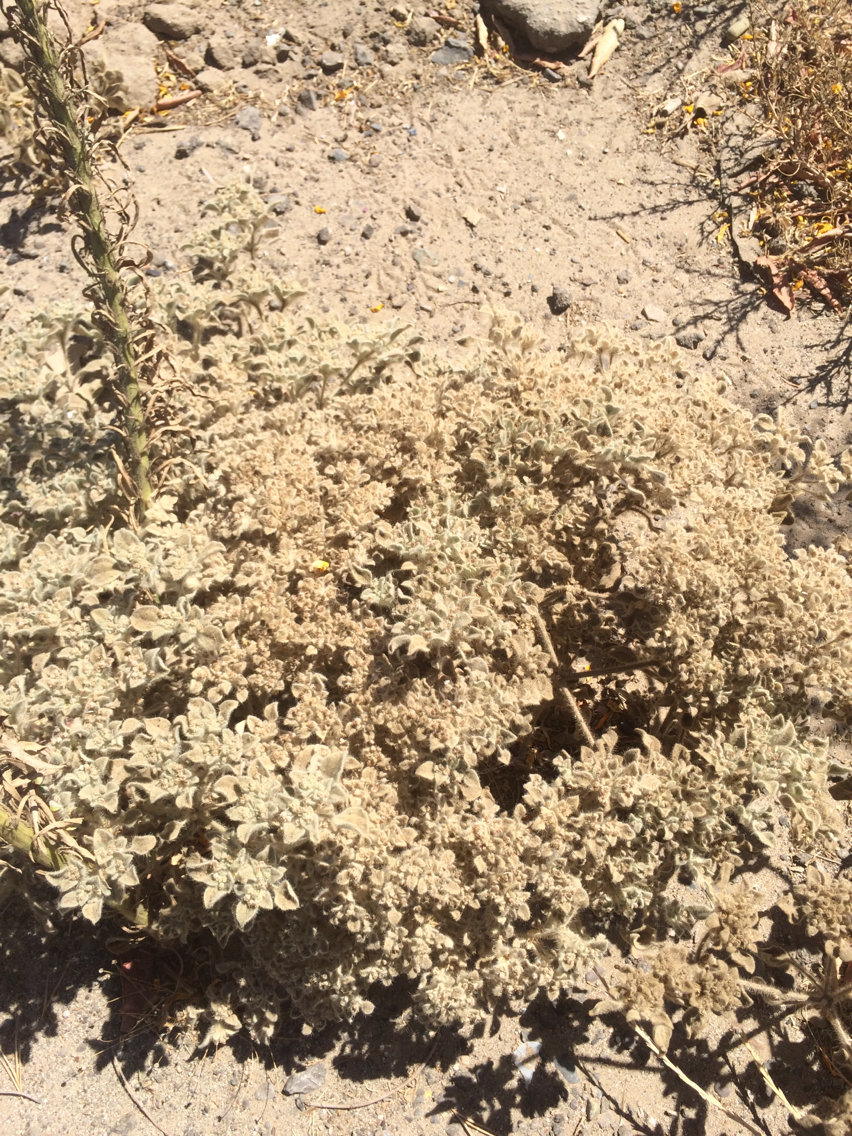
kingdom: Plantae
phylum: Tracheophyta
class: Magnoliopsida
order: Malpighiales
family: Euphorbiaceae
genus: Croton
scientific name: Croton setiger
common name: Dove weed
